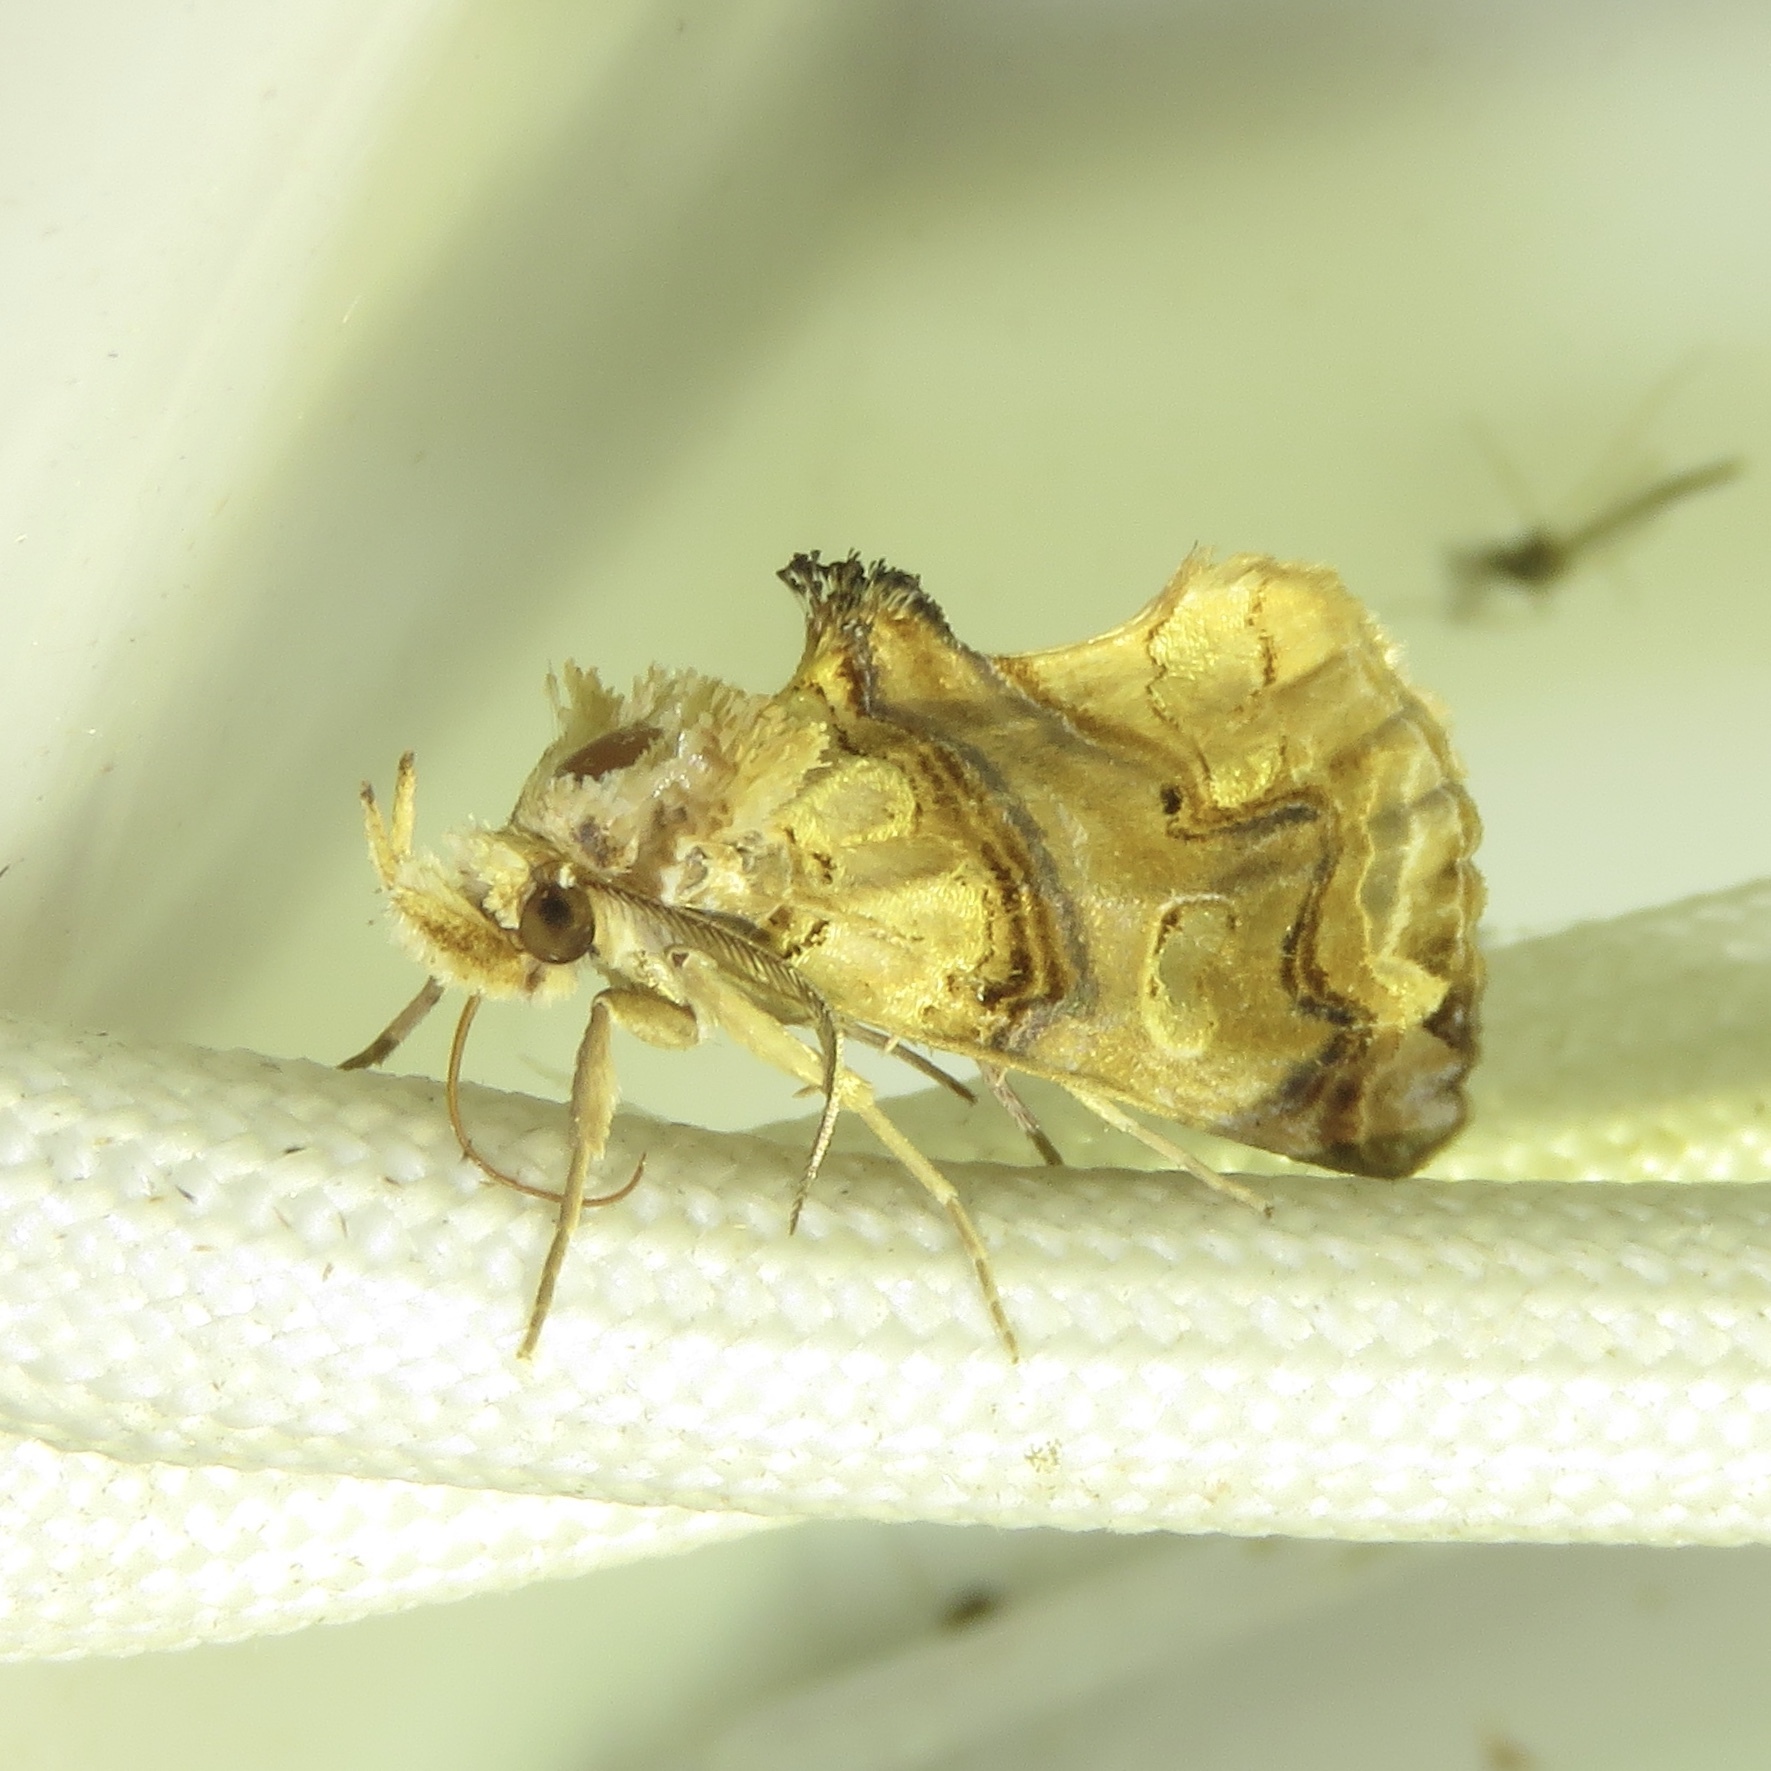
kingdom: Animalia
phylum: Arthropoda
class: Insecta
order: Lepidoptera
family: Erebidae
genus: Plusiodonta
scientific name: Plusiodonta compressipalpis
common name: Moonseed moth
